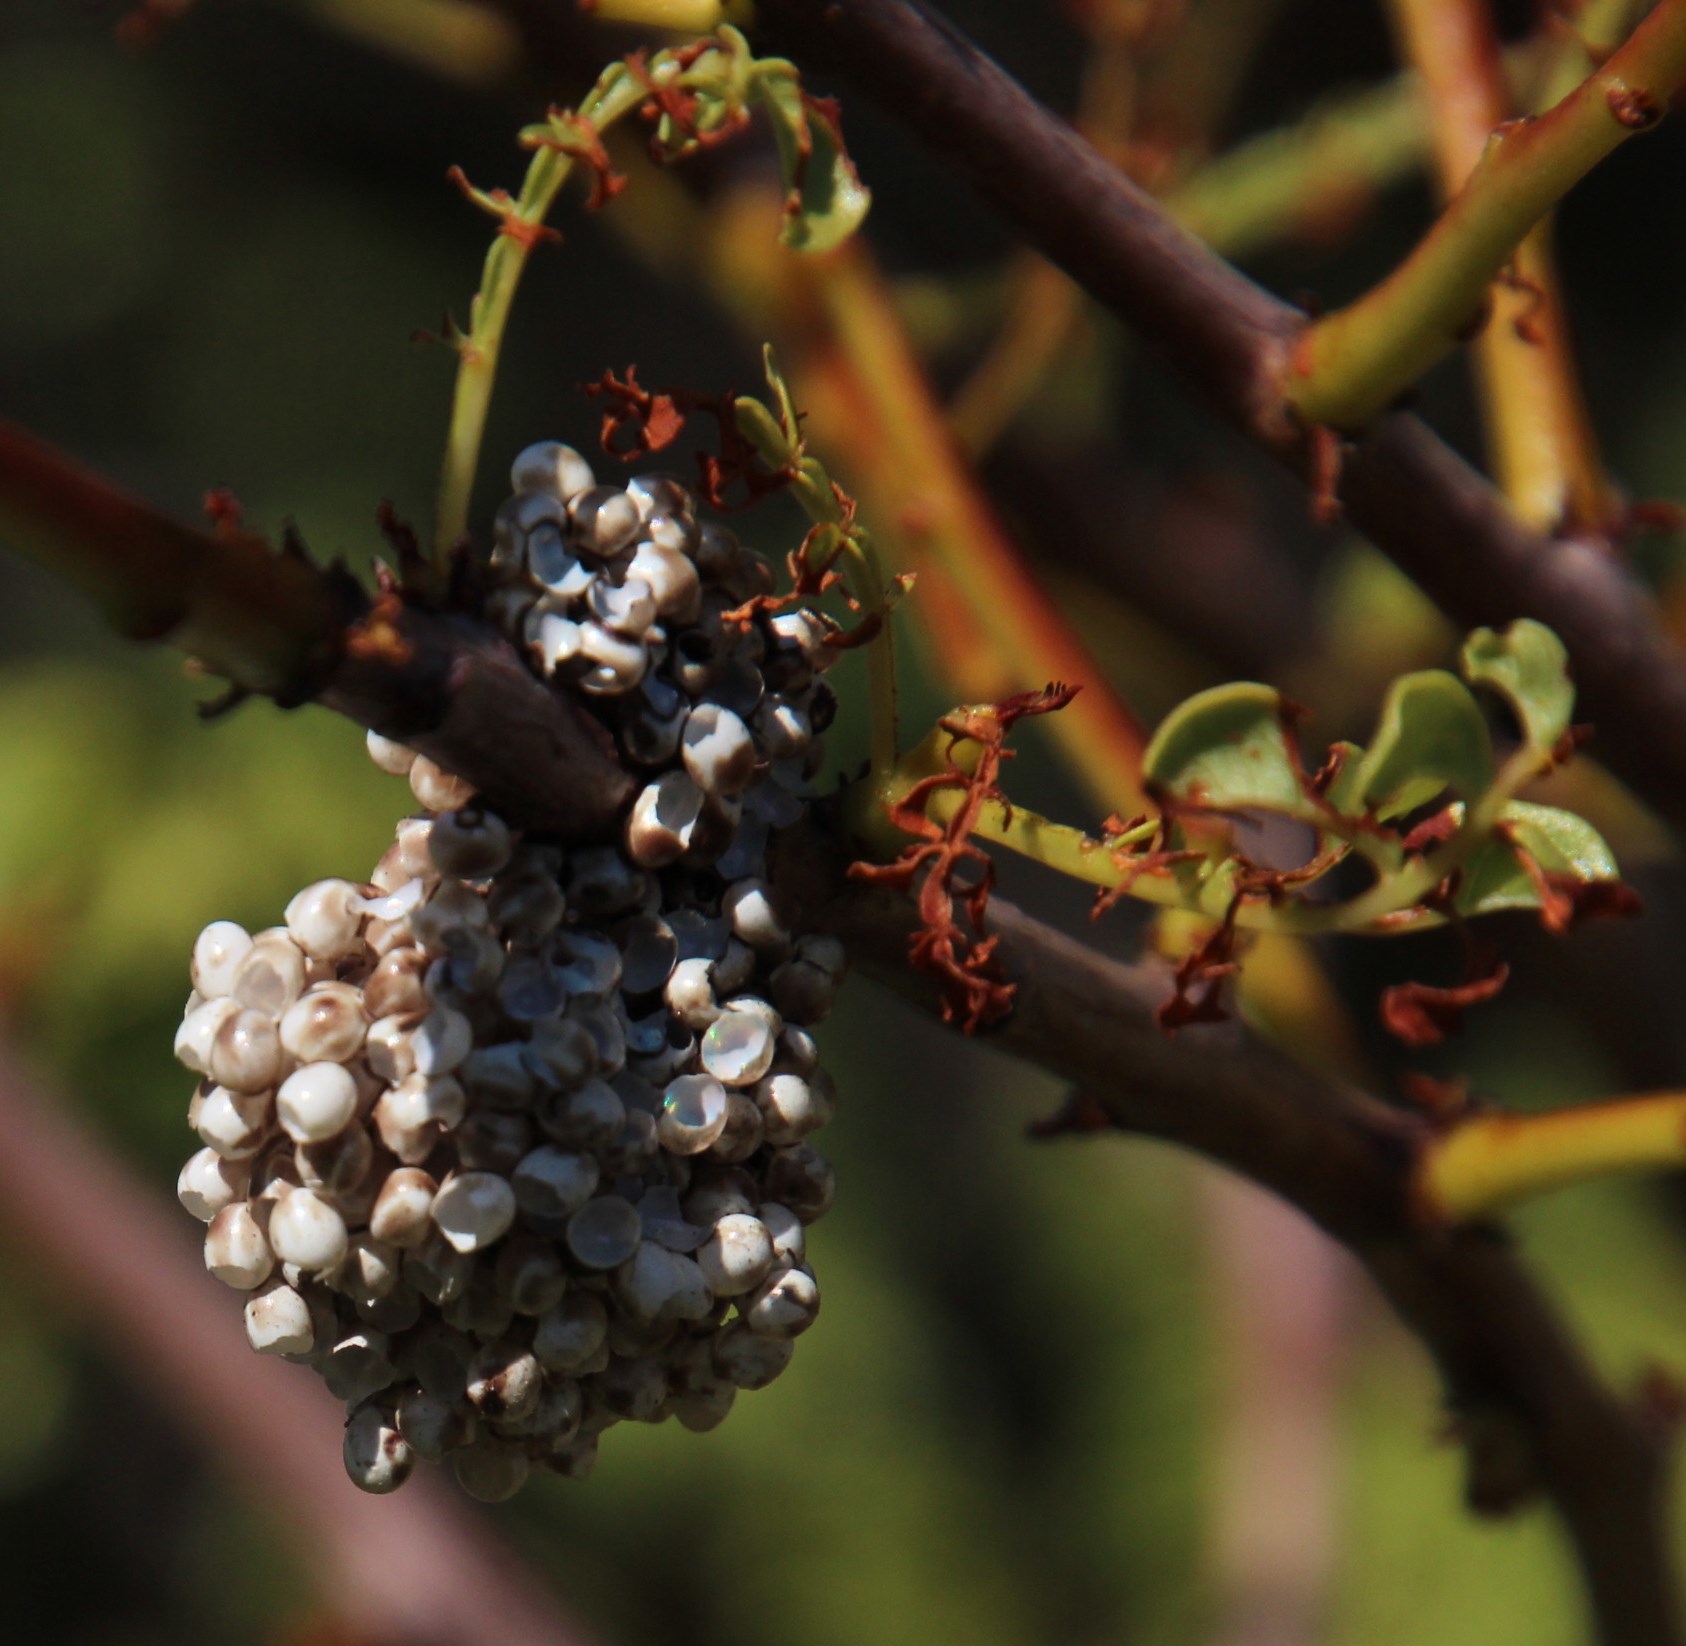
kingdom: Plantae
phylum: Tracheophyta
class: Magnoliopsida
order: Sapindales
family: Sapindaceae
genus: Erythrophysa
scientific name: Erythrophysa alata
